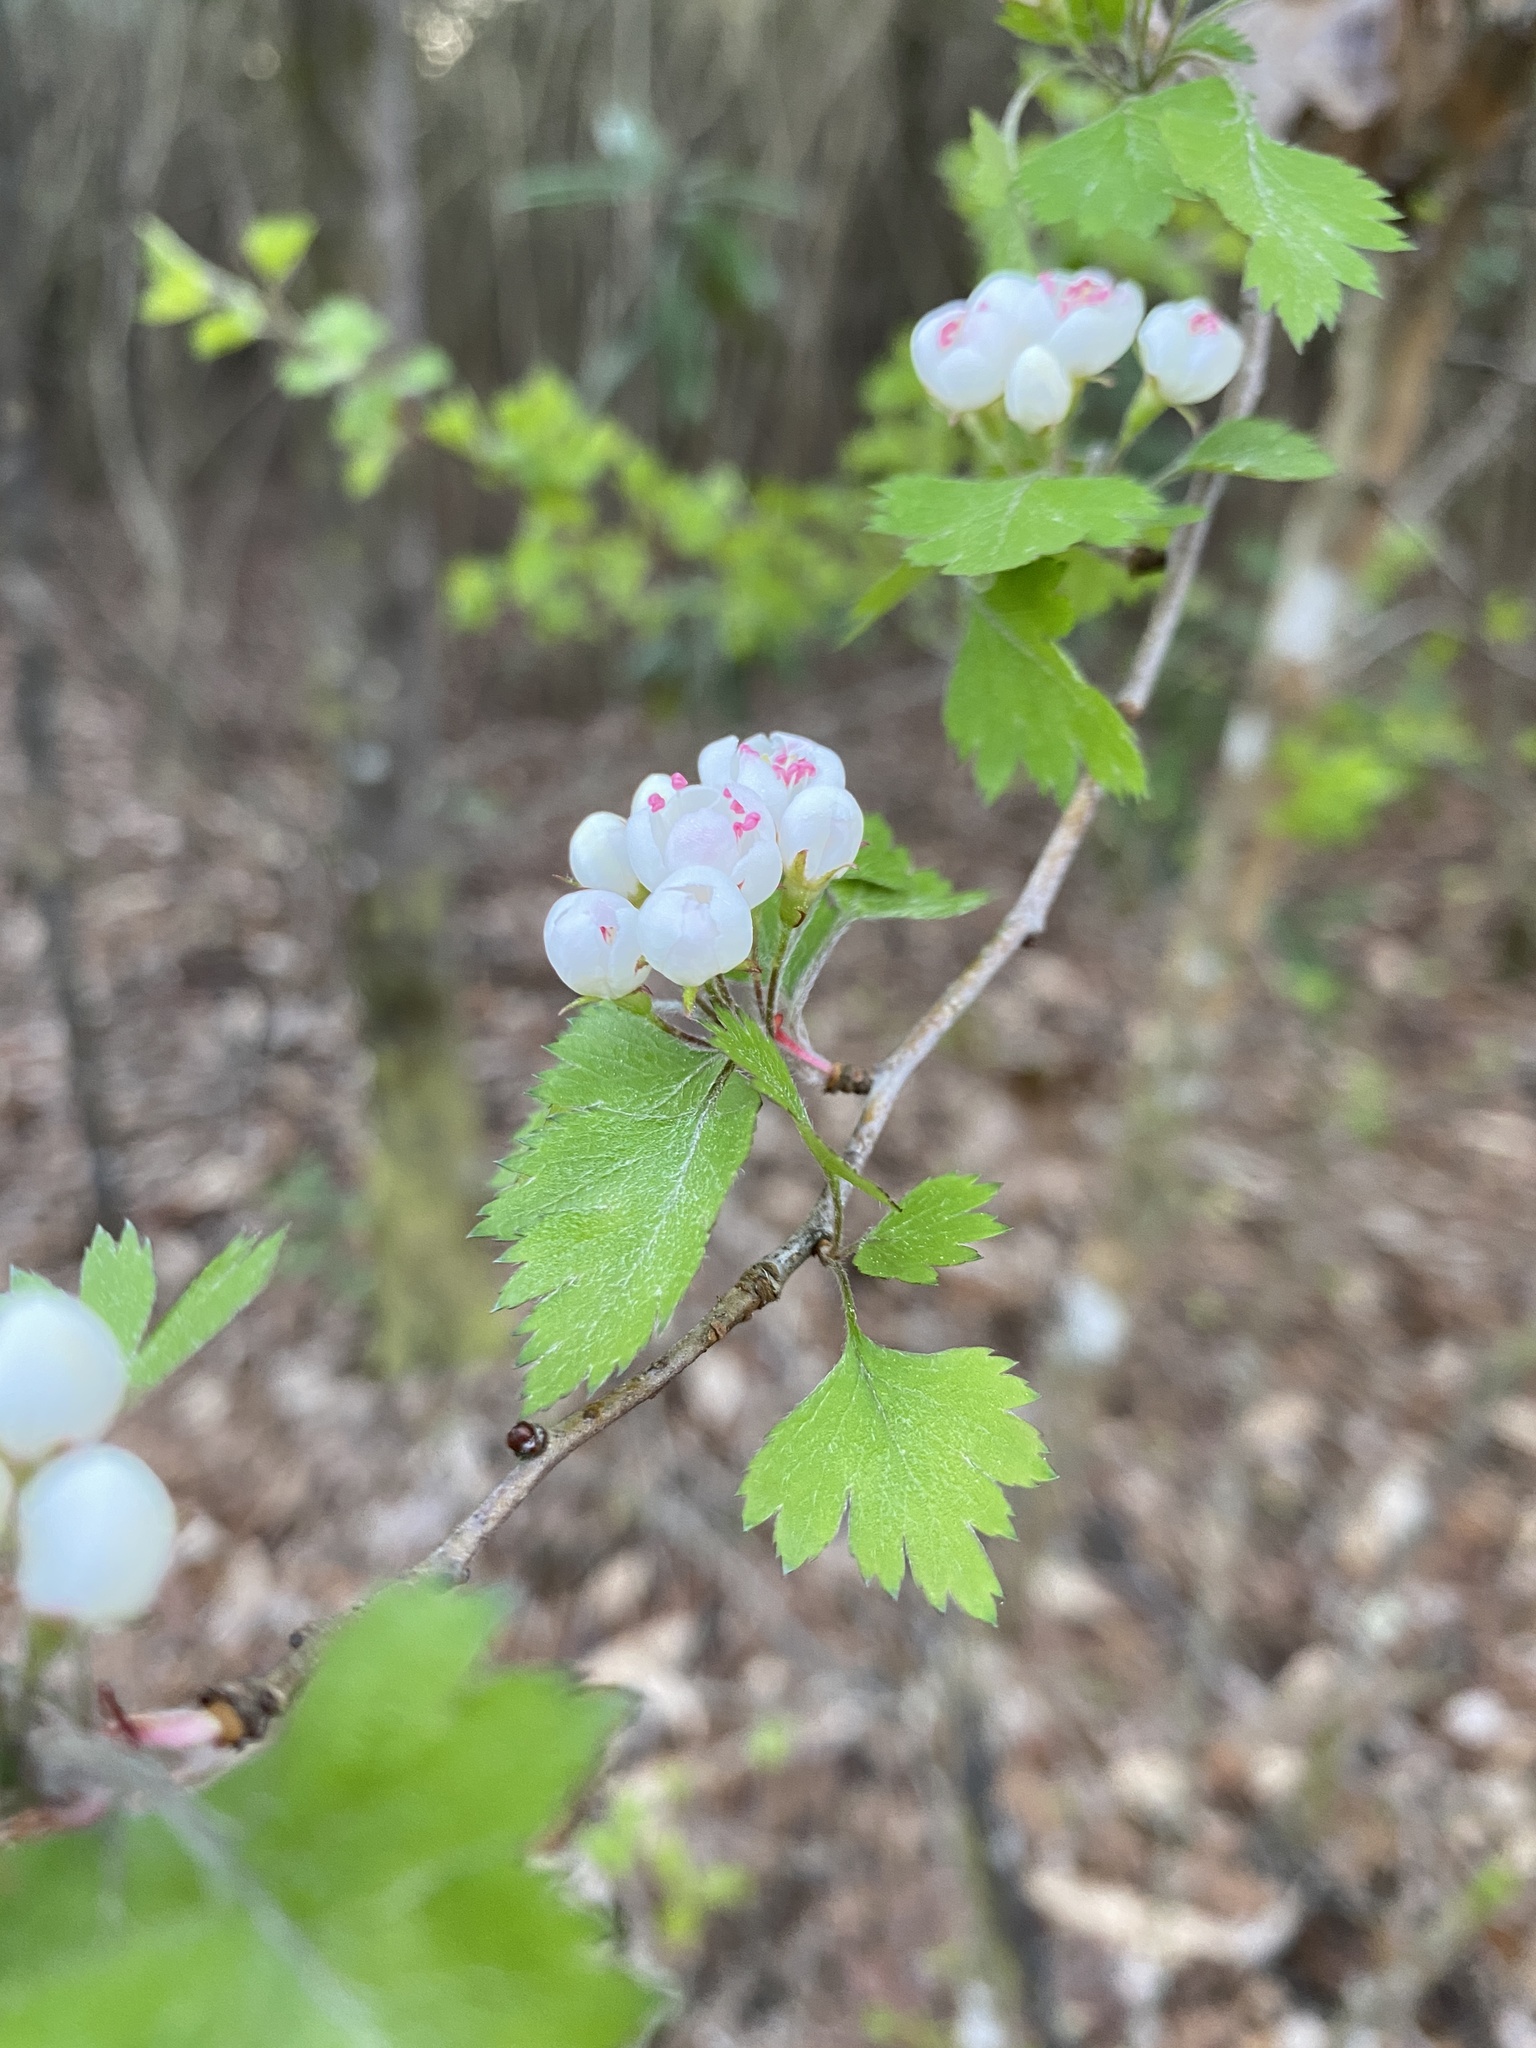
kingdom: Plantae
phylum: Tracheophyta
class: Magnoliopsida
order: Rosales
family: Rosaceae
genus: Crataegus
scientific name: Crataegus marshallii
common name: Parsley-hawthorn
